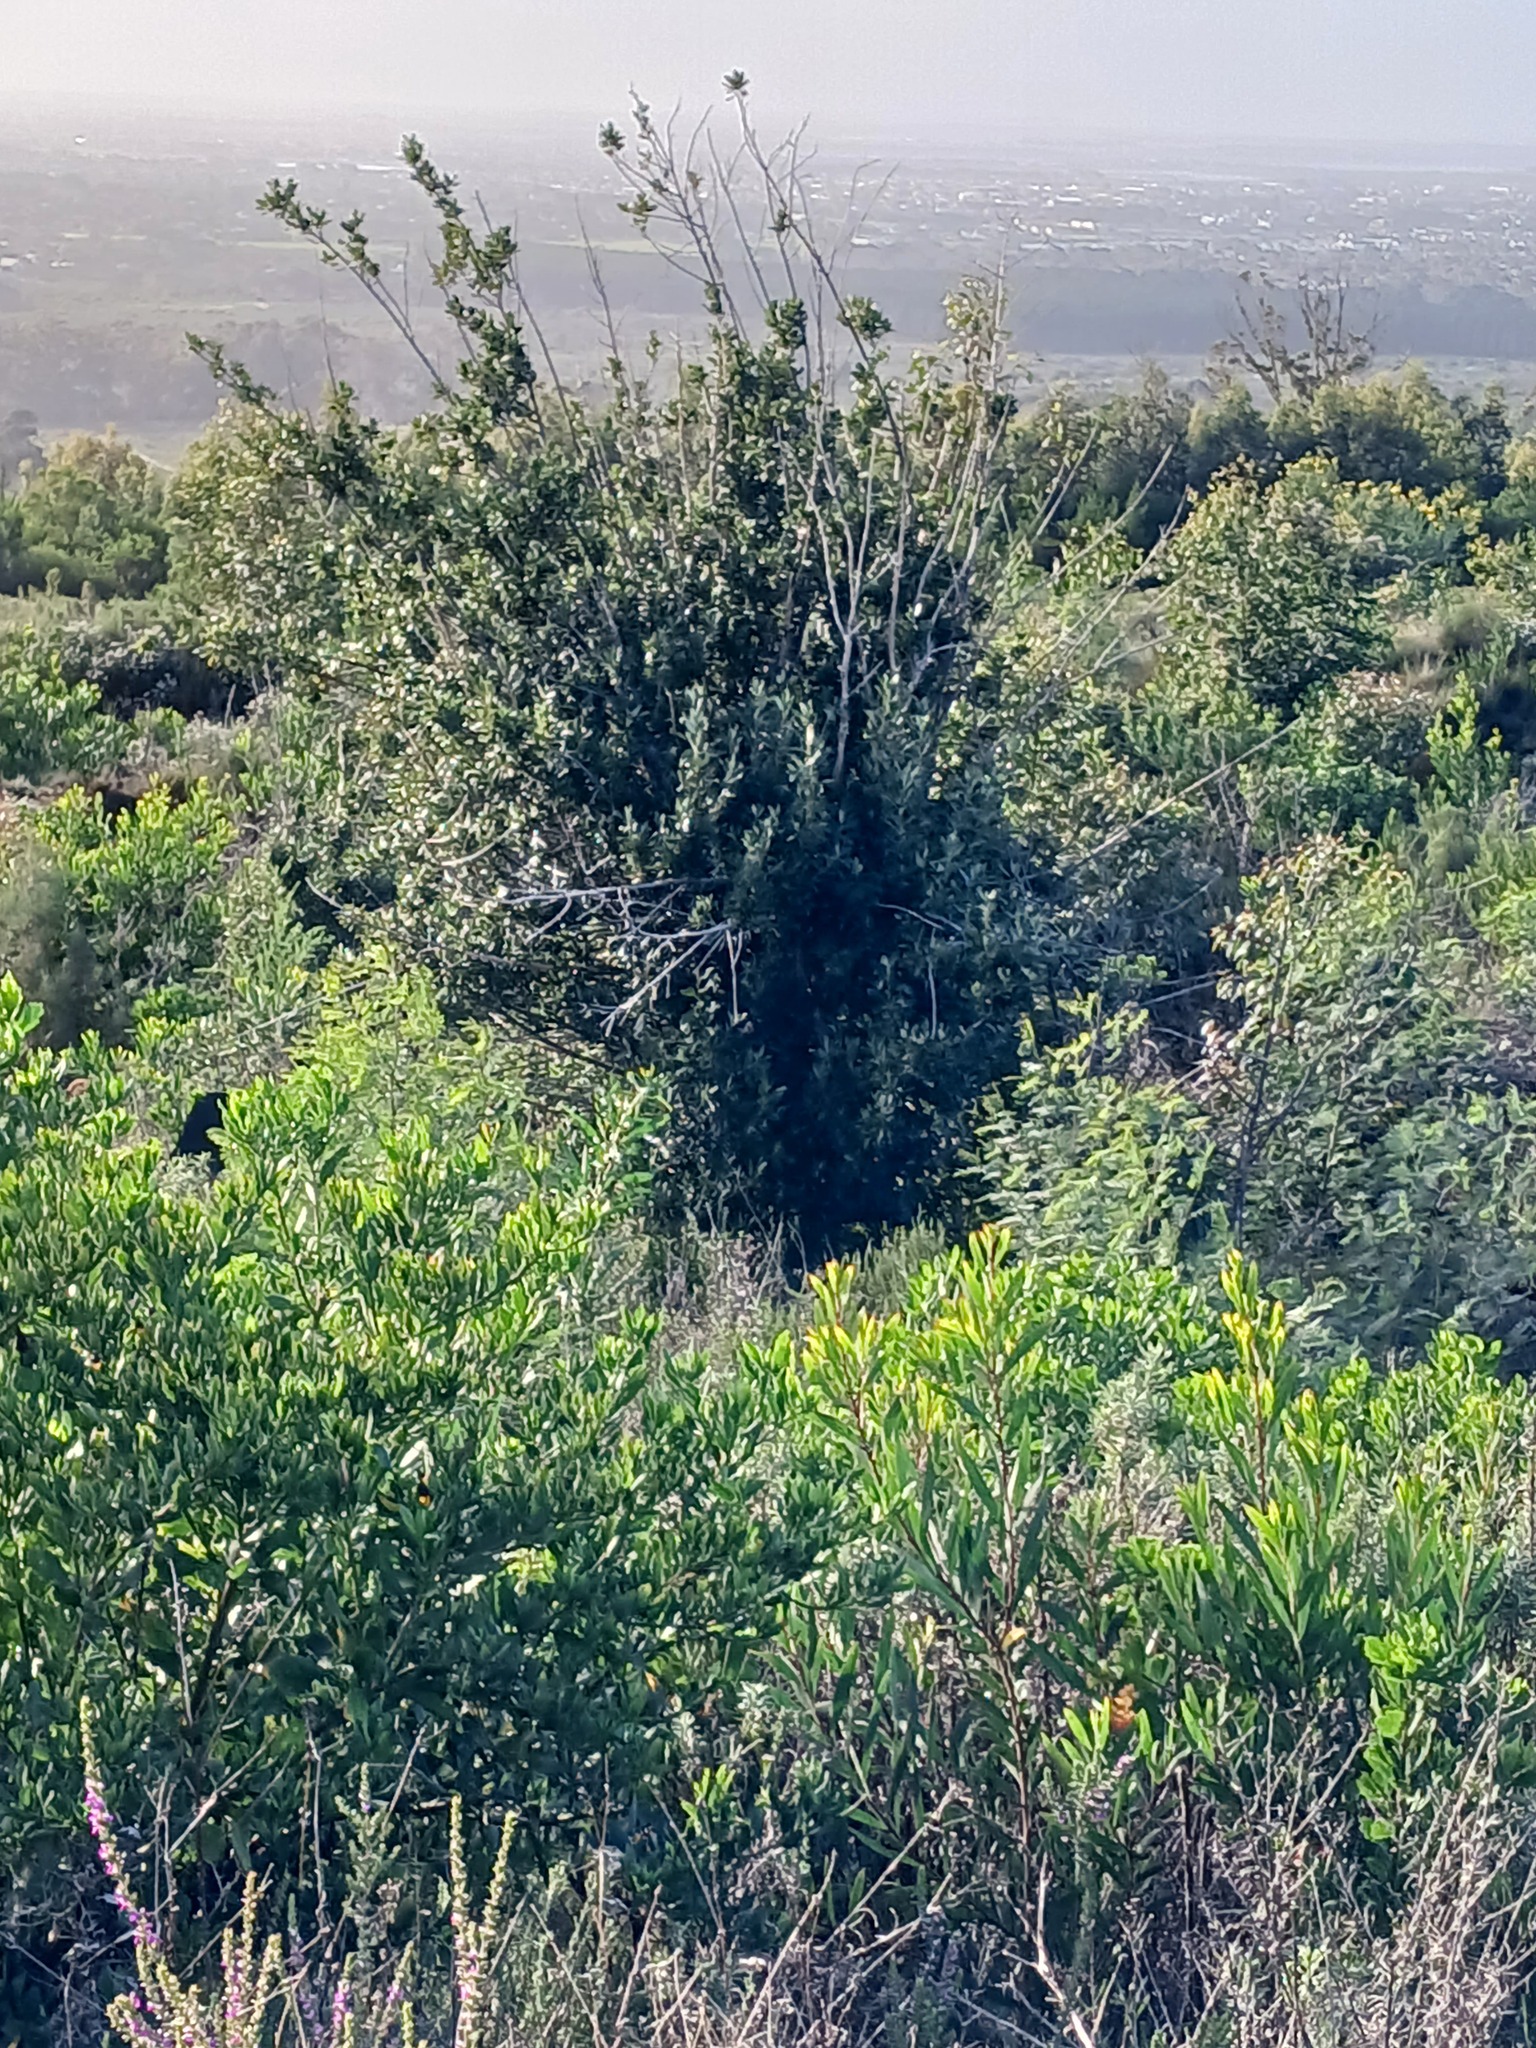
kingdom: Plantae
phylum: Tracheophyta
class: Magnoliopsida
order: Malpighiales
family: Achariaceae
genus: Kiggelaria
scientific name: Kiggelaria africana
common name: Wild peach
